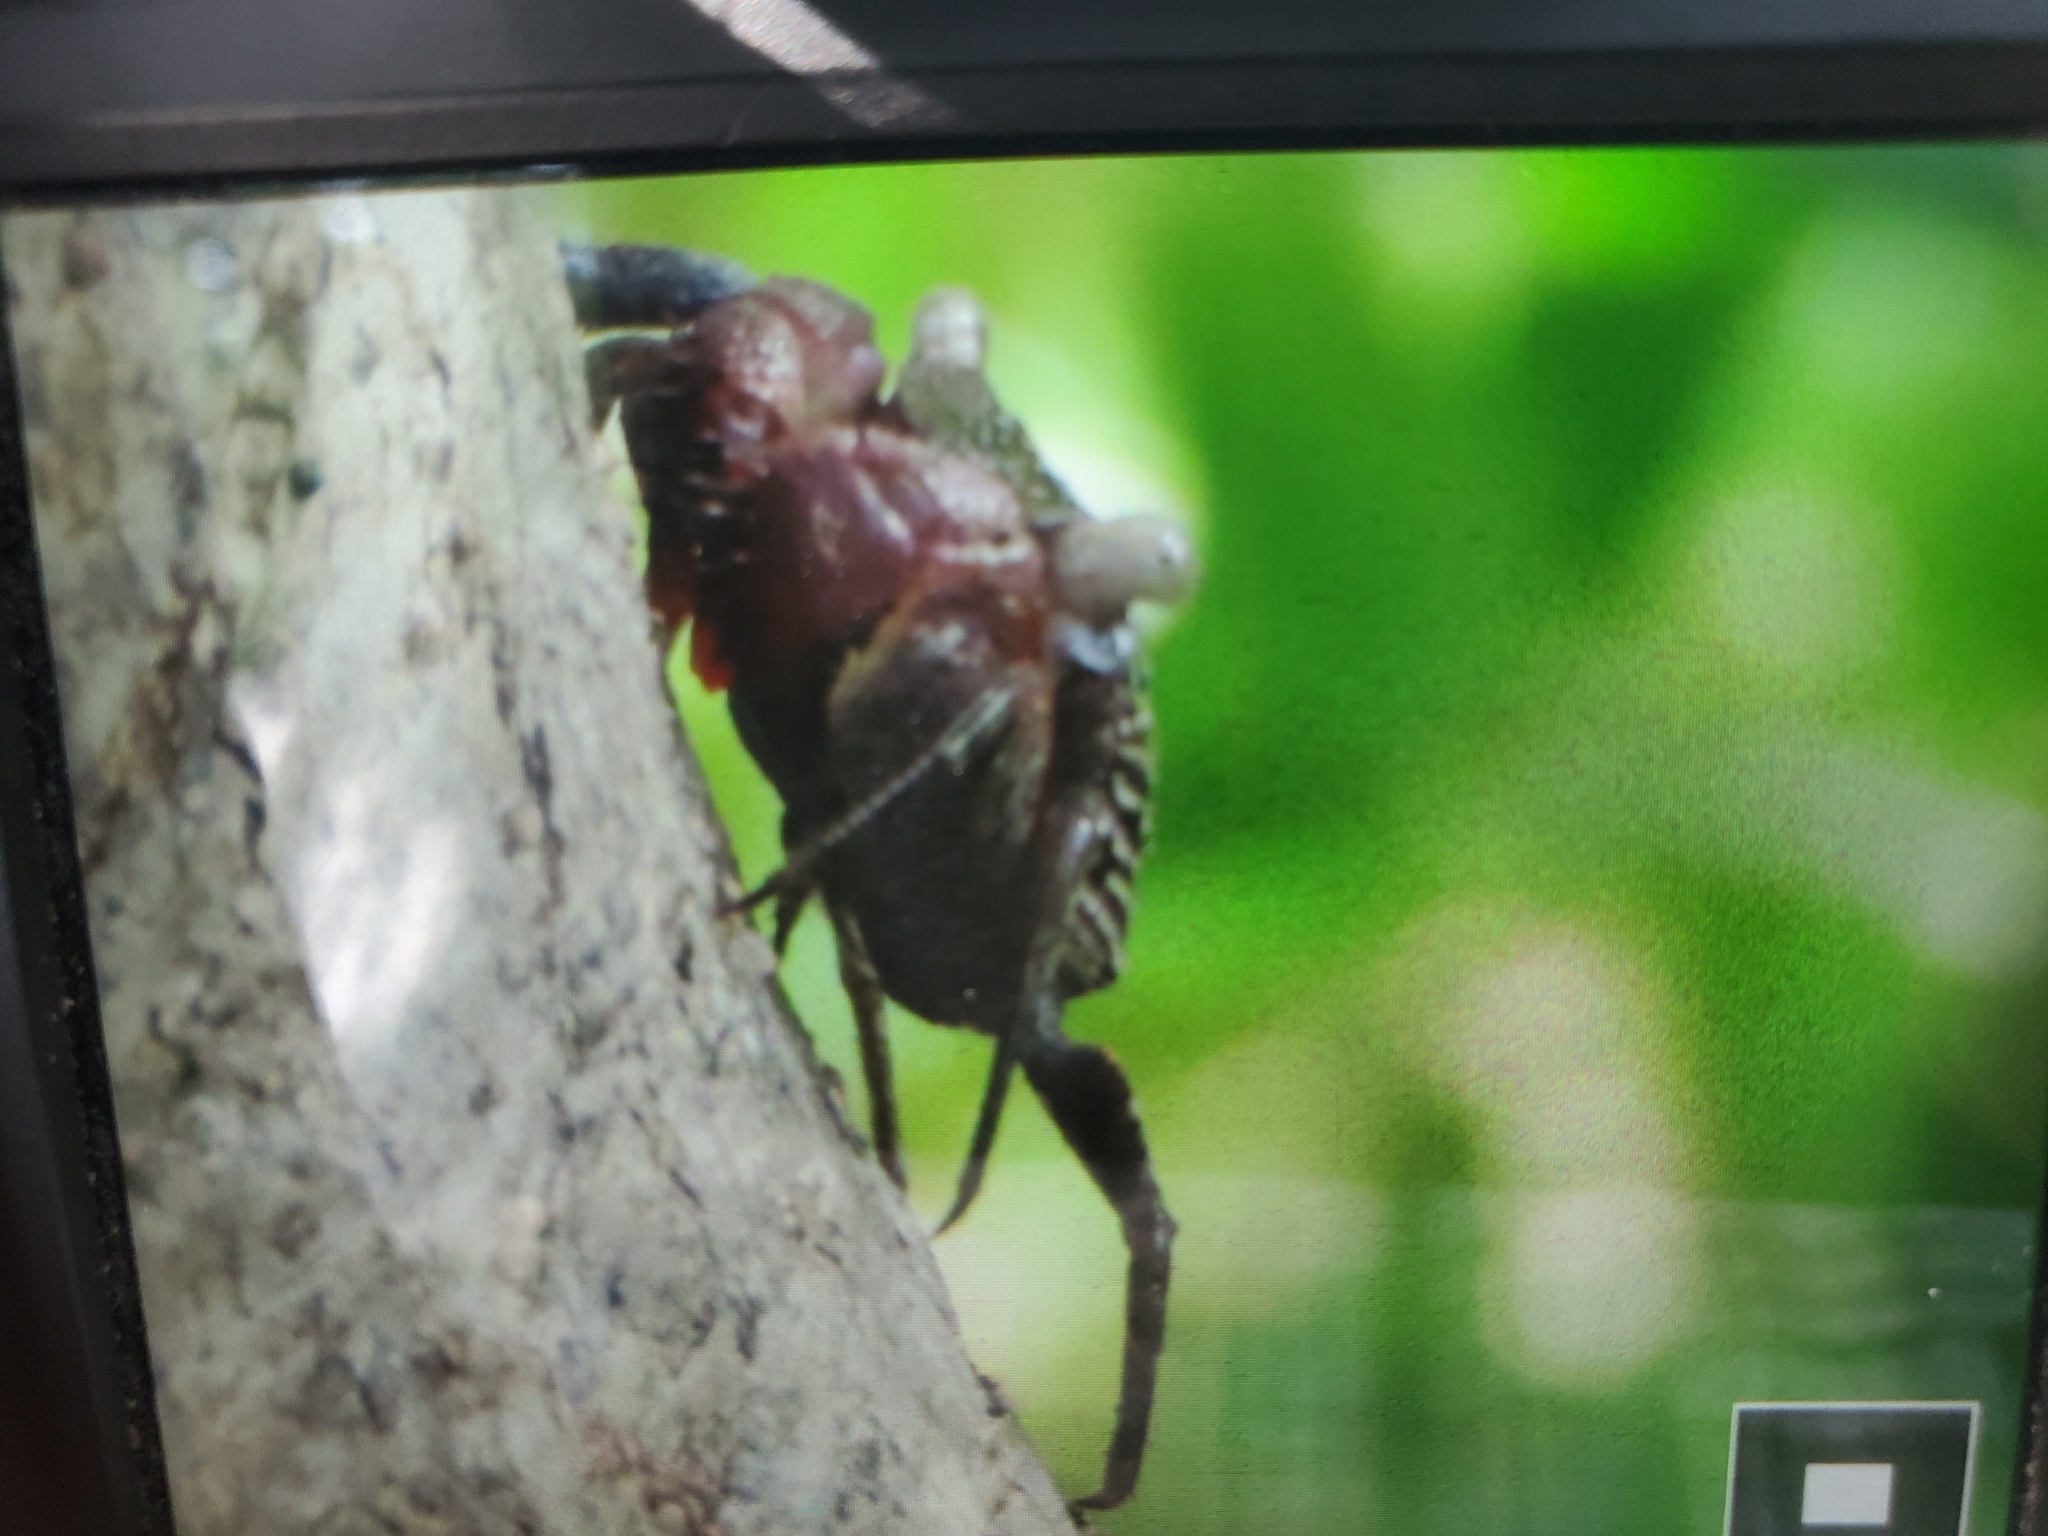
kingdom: Animalia
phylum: Arthropoda
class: Malacostraca
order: Decapoda
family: Sesarmidae
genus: Aratus
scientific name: Aratus pisonii
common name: Mangrove crab
